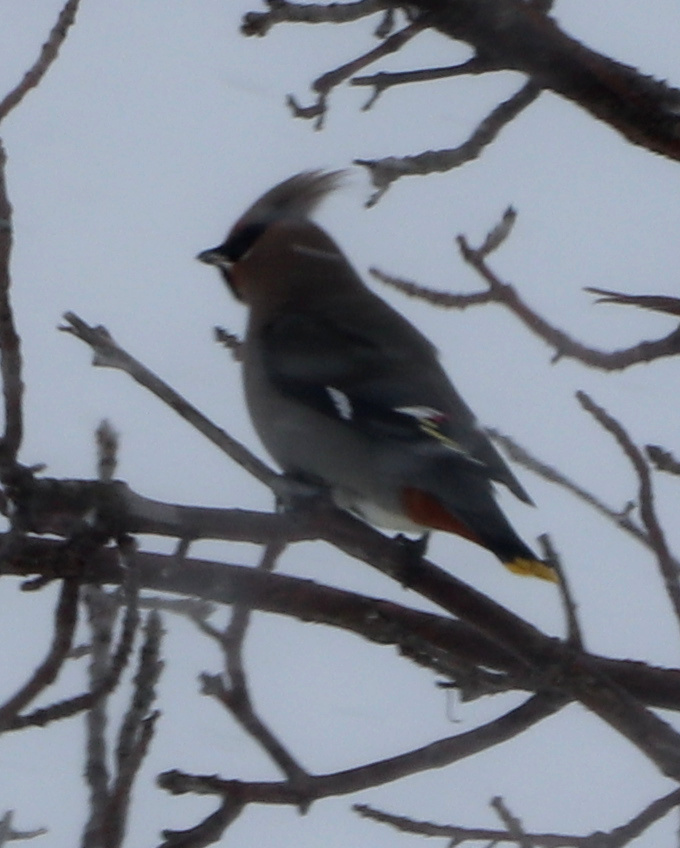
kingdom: Animalia
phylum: Chordata
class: Aves
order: Passeriformes
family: Bombycillidae
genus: Bombycilla
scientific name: Bombycilla garrulus
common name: Bohemian waxwing
